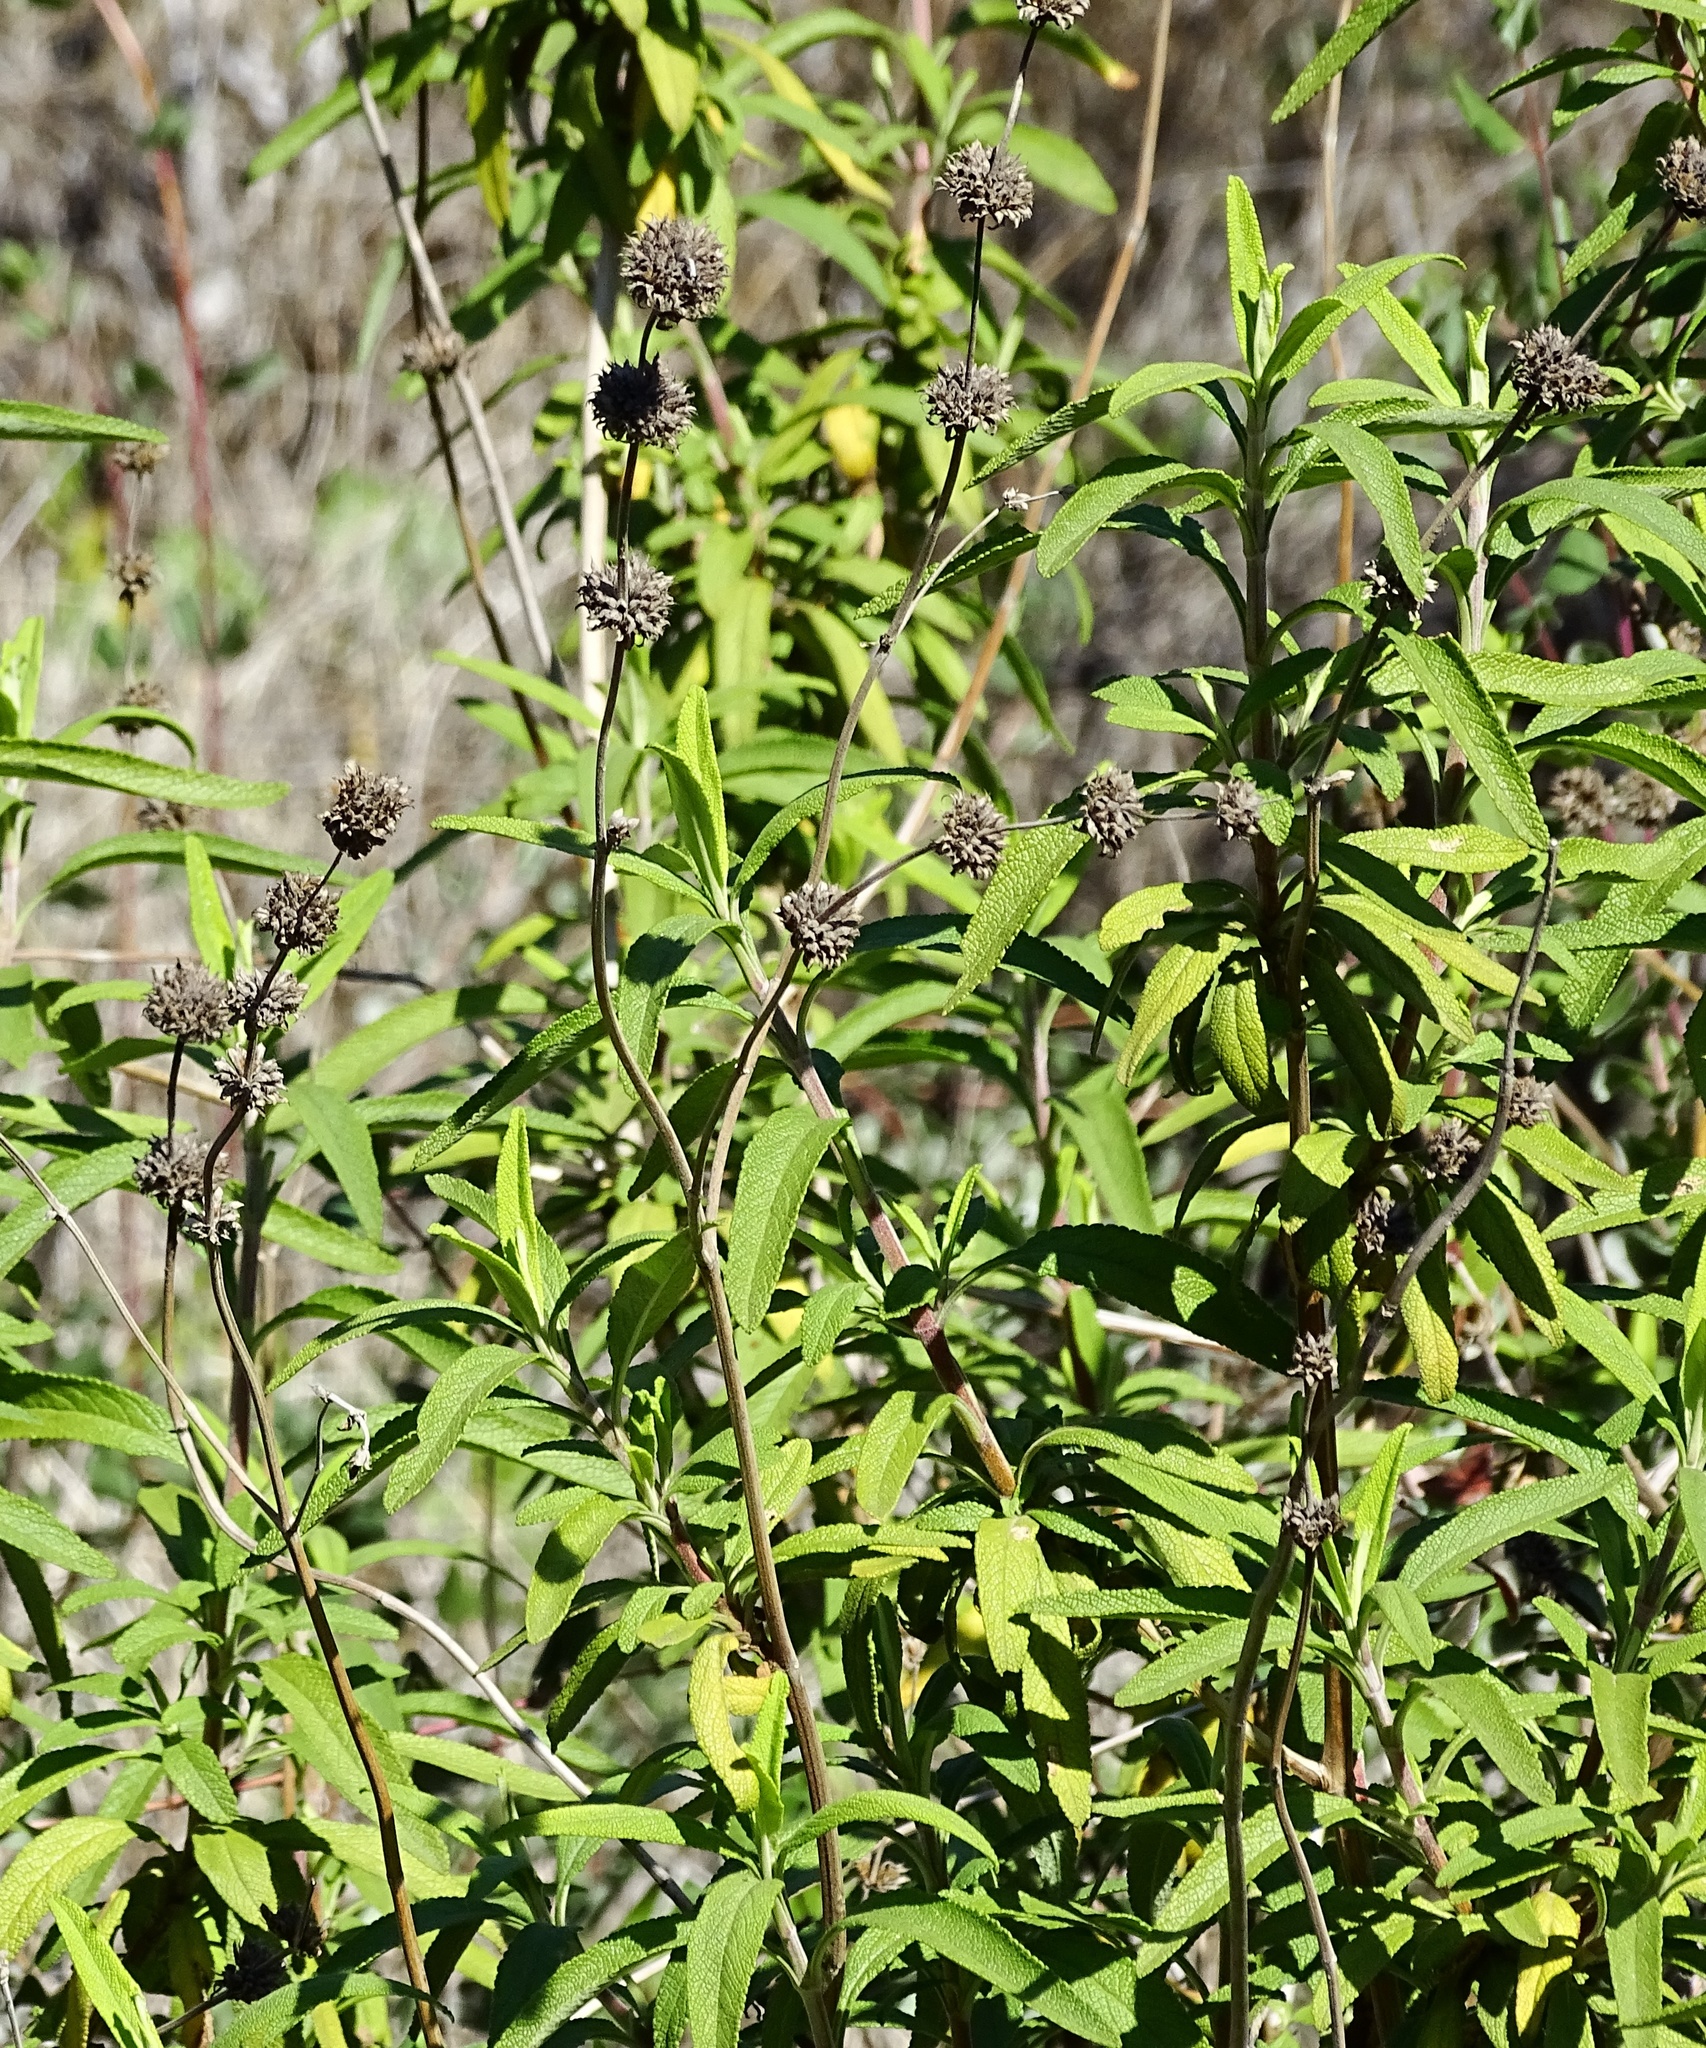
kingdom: Plantae
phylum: Tracheophyta
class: Magnoliopsida
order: Lamiales
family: Lamiaceae
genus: Salvia
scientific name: Salvia mellifera
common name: Black sage
